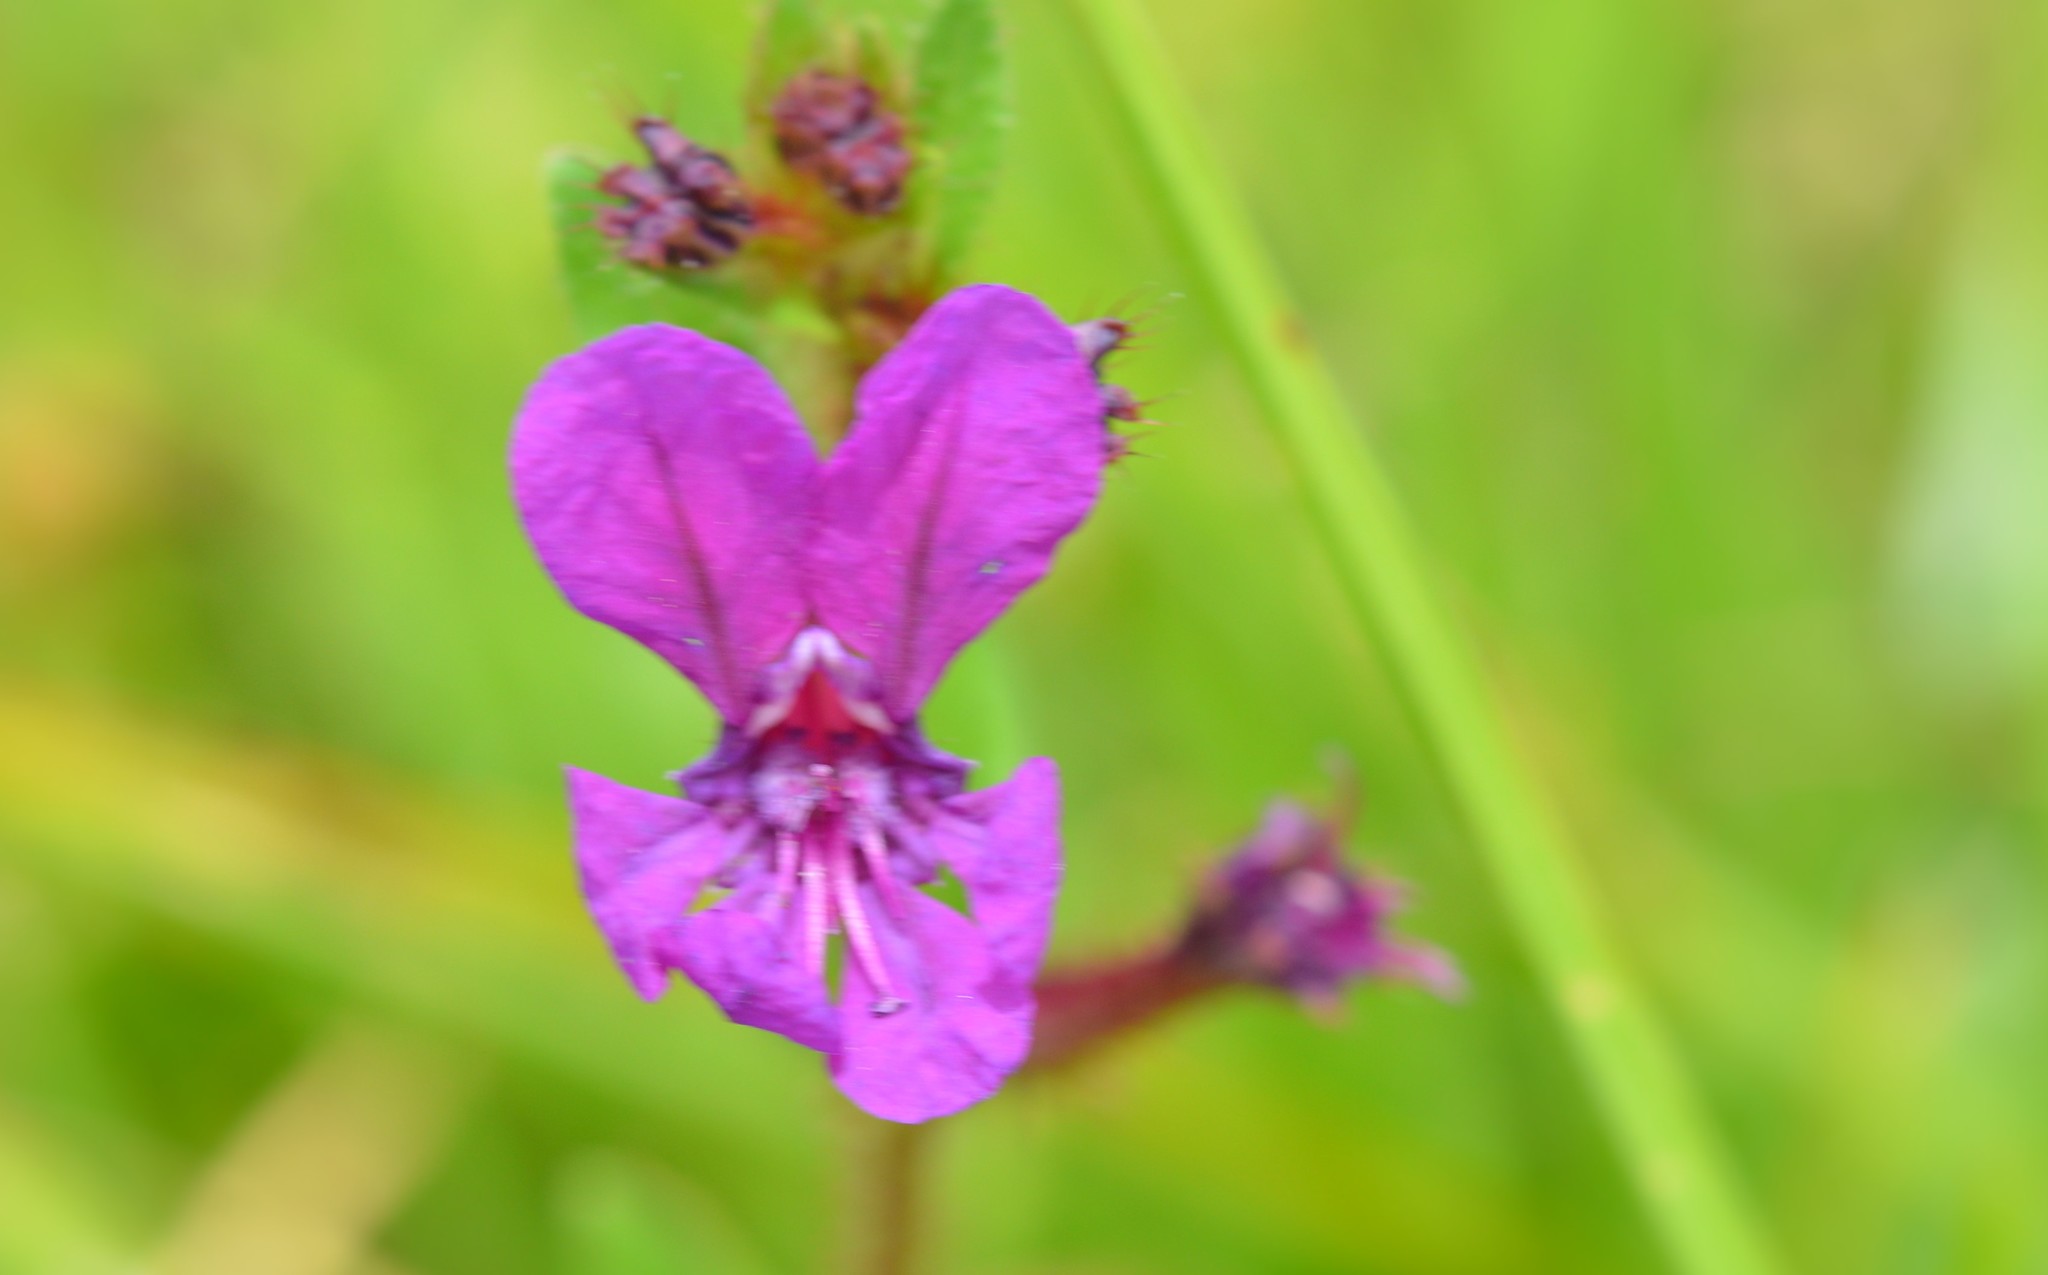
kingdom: Plantae
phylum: Tracheophyta
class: Magnoliopsida
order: Myrtales
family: Lythraceae
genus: Cuphea
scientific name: Cuphea aequipetala
